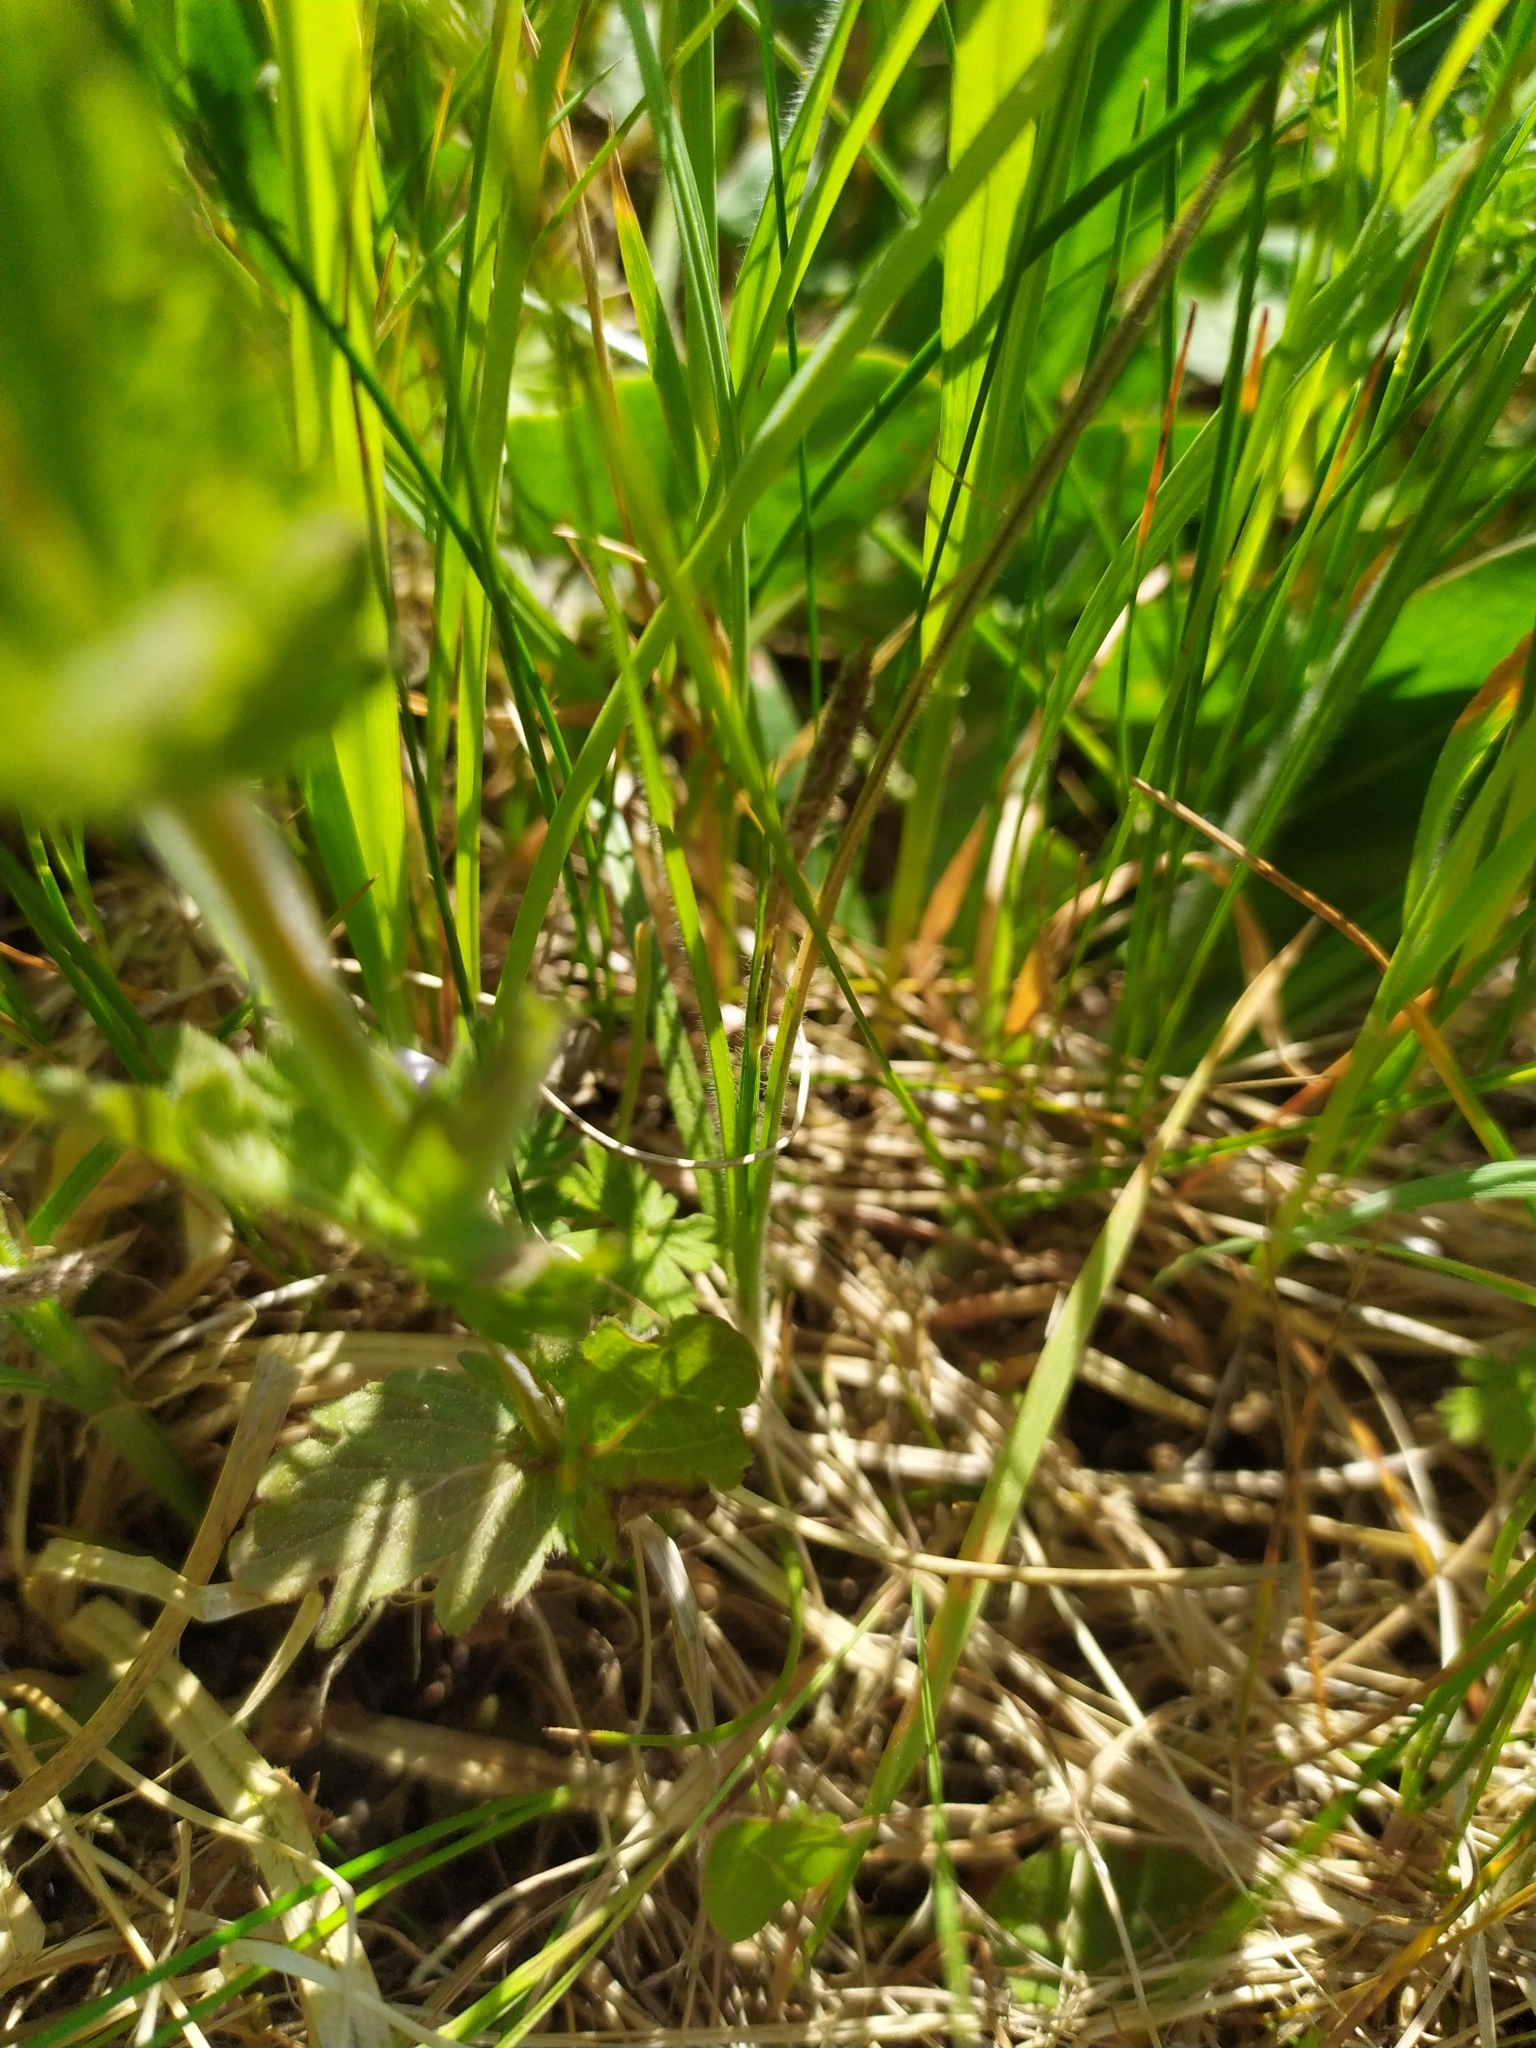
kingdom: Plantae
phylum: Tracheophyta
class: Magnoliopsida
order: Lamiales
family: Plantaginaceae
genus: Veronica
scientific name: Veronica chamaedrys
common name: Germander speedwell
